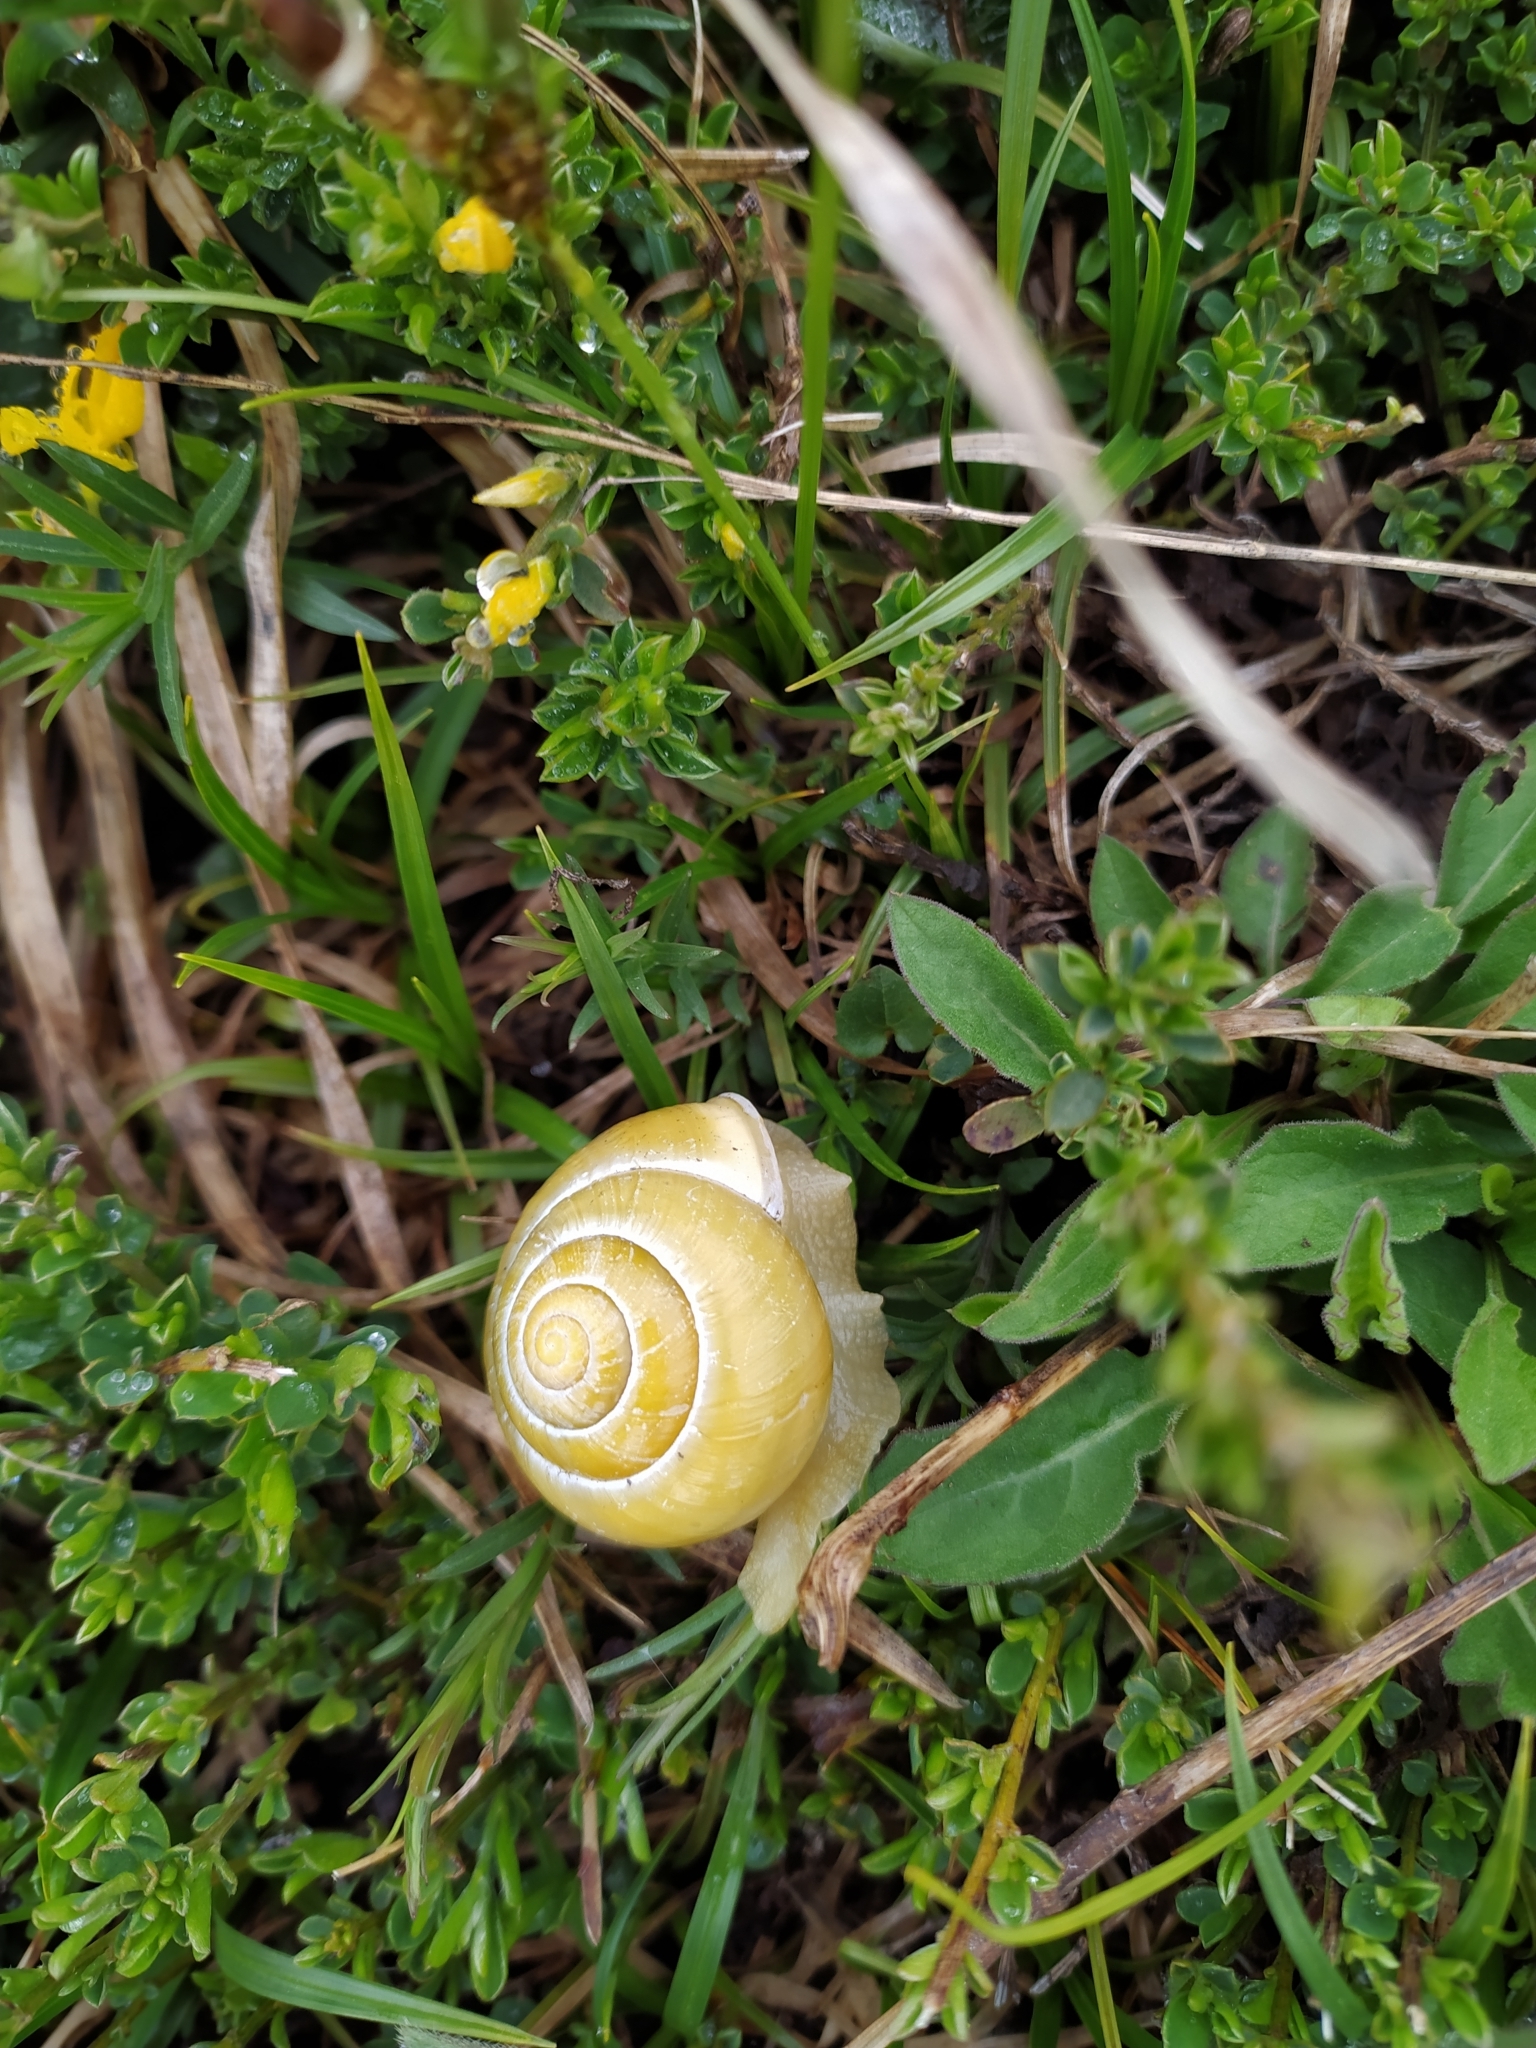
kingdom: Animalia
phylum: Mollusca
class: Gastropoda
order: Stylommatophora
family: Helicidae
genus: Cepaea
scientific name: Cepaea hortensis
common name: White-lip gardensnail
